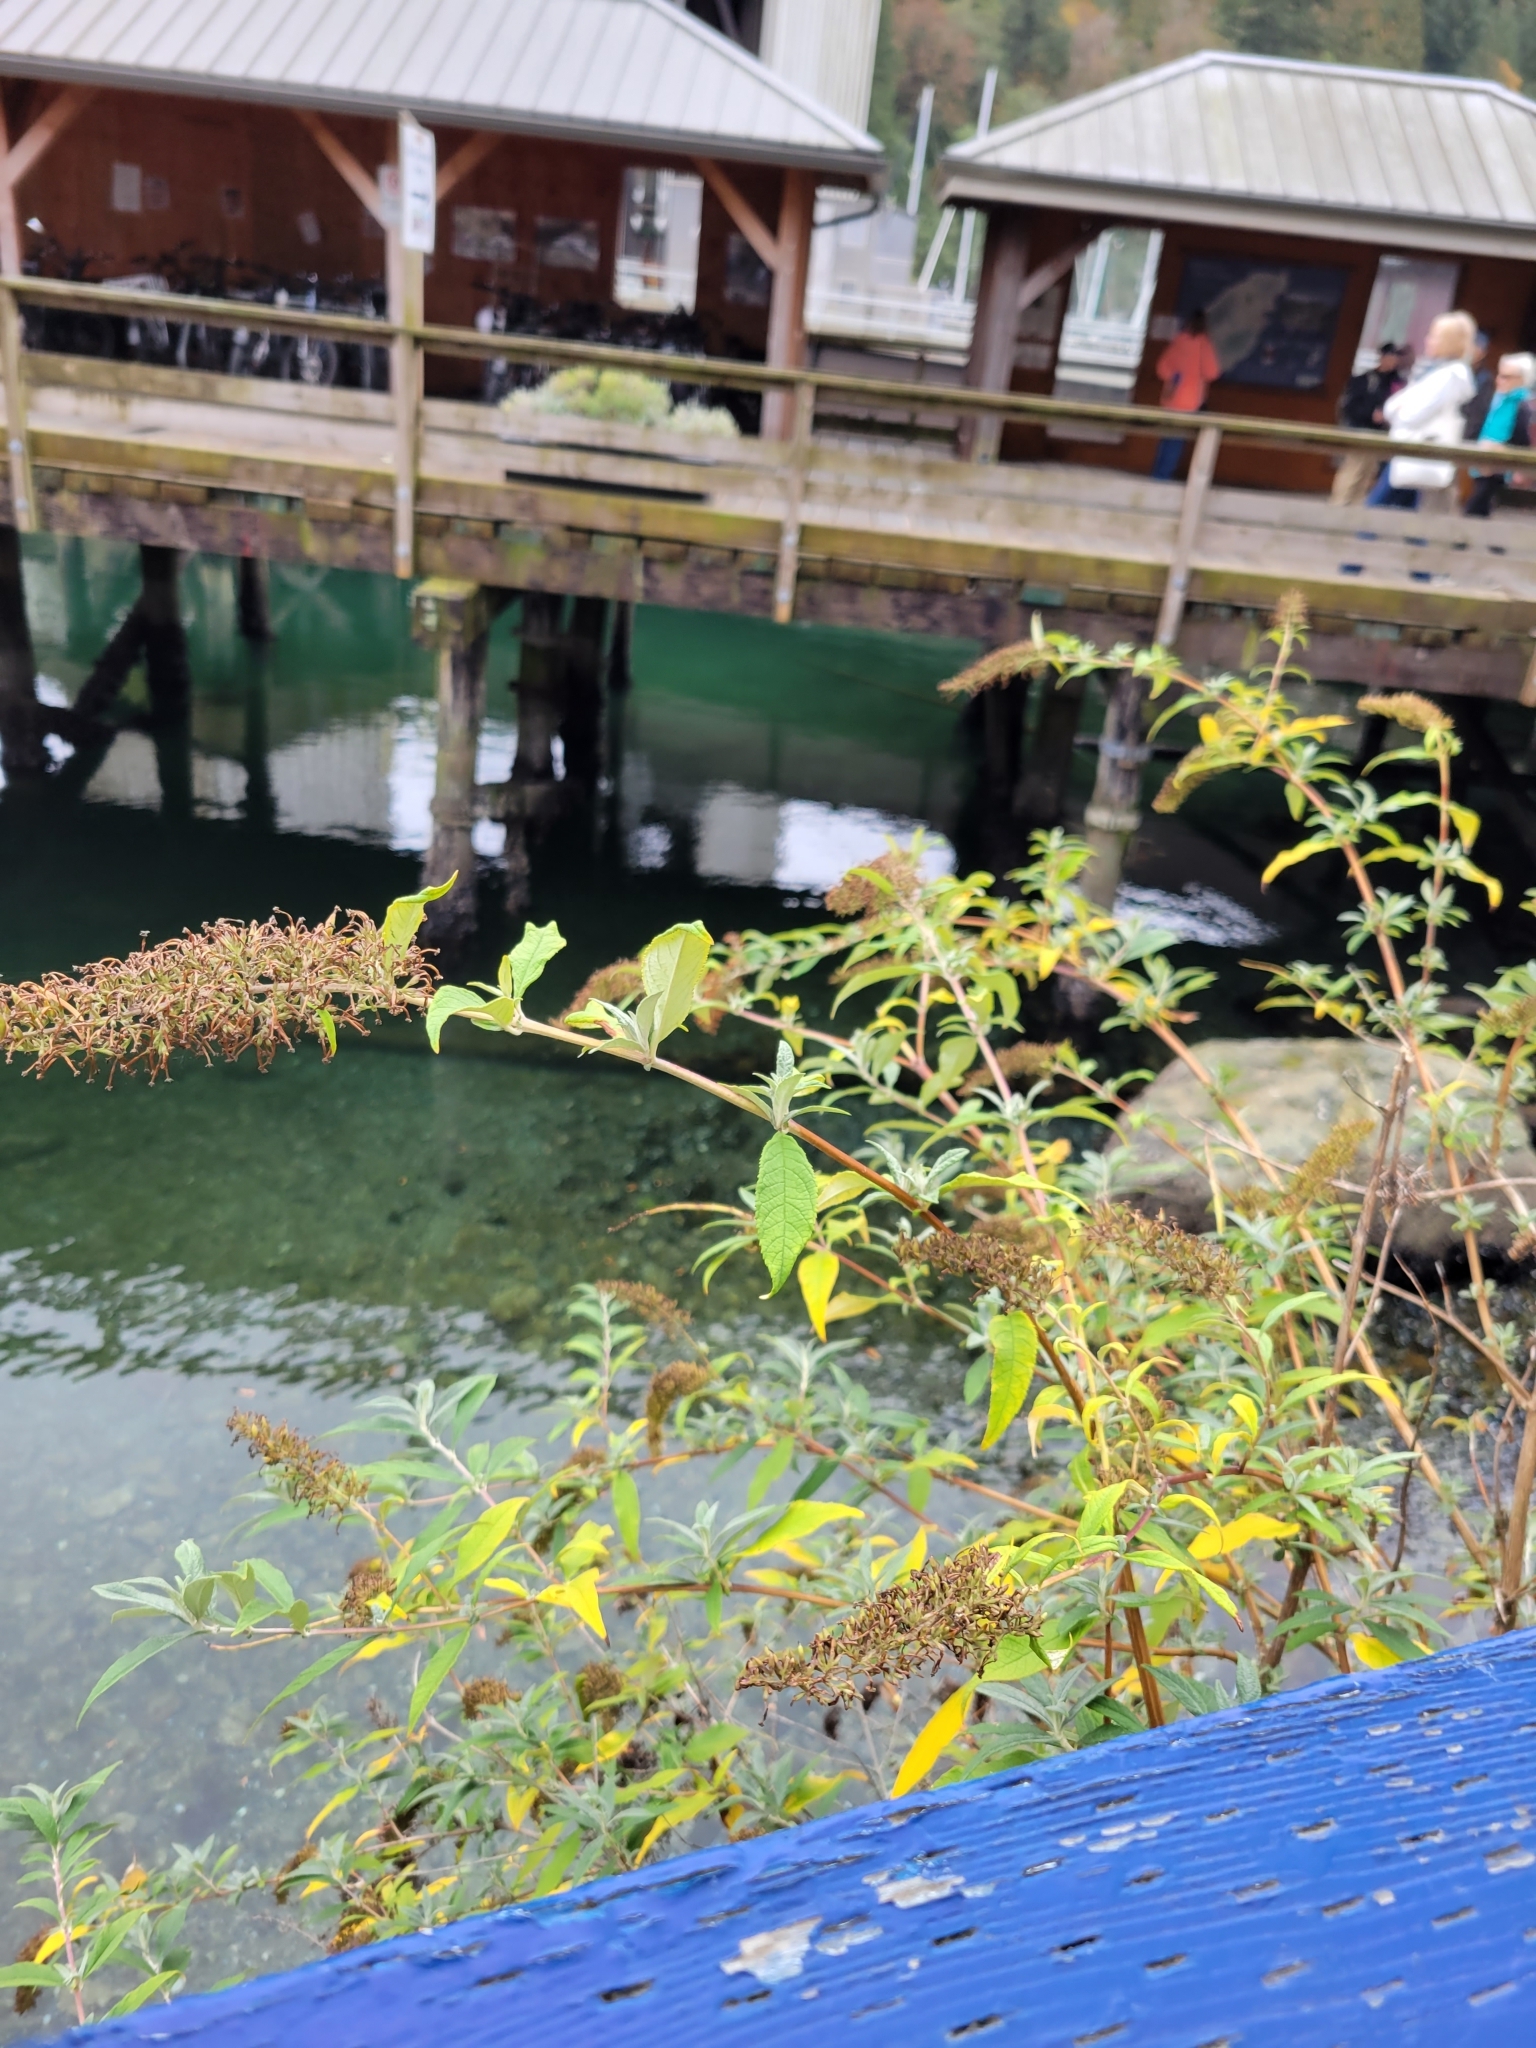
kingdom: Plantae
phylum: Tracheophyta
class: Magnoliopsida
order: Lamiales
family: Scrophulariaceae
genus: Buddleja
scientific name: Buddleja davidii
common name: Butterfly-bush
